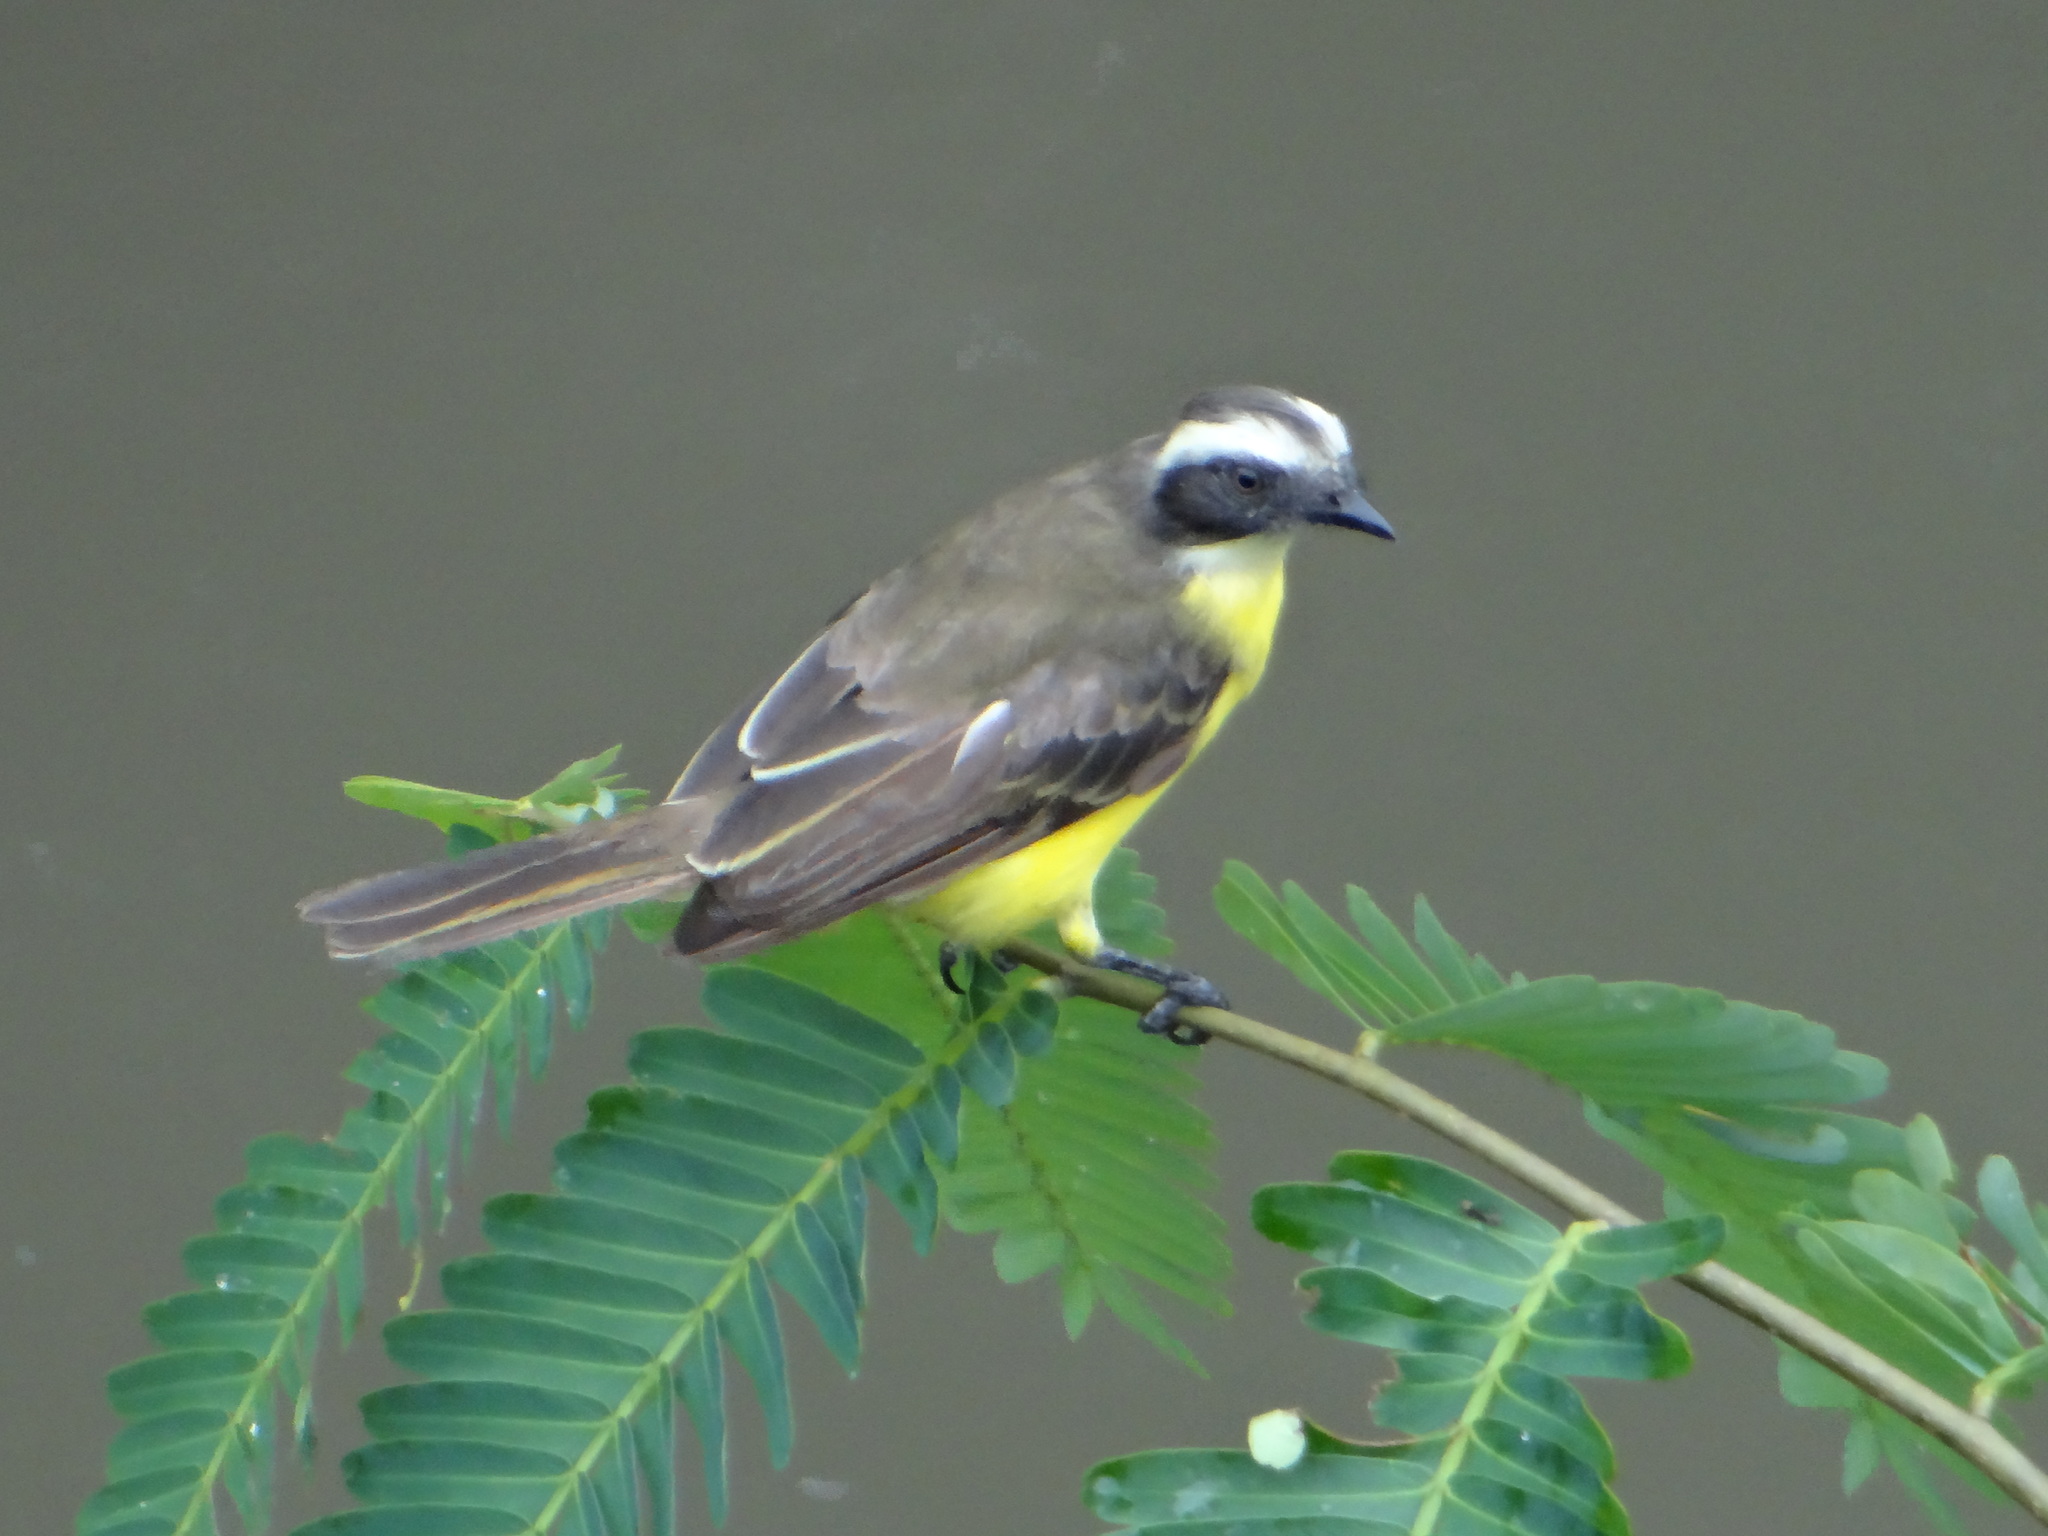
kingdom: Animalia
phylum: Chordata
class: Aves
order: Passeriformes
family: Tyrannidae
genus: Myiozetetes
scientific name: Myiozetetes similis
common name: Social flycatcher
